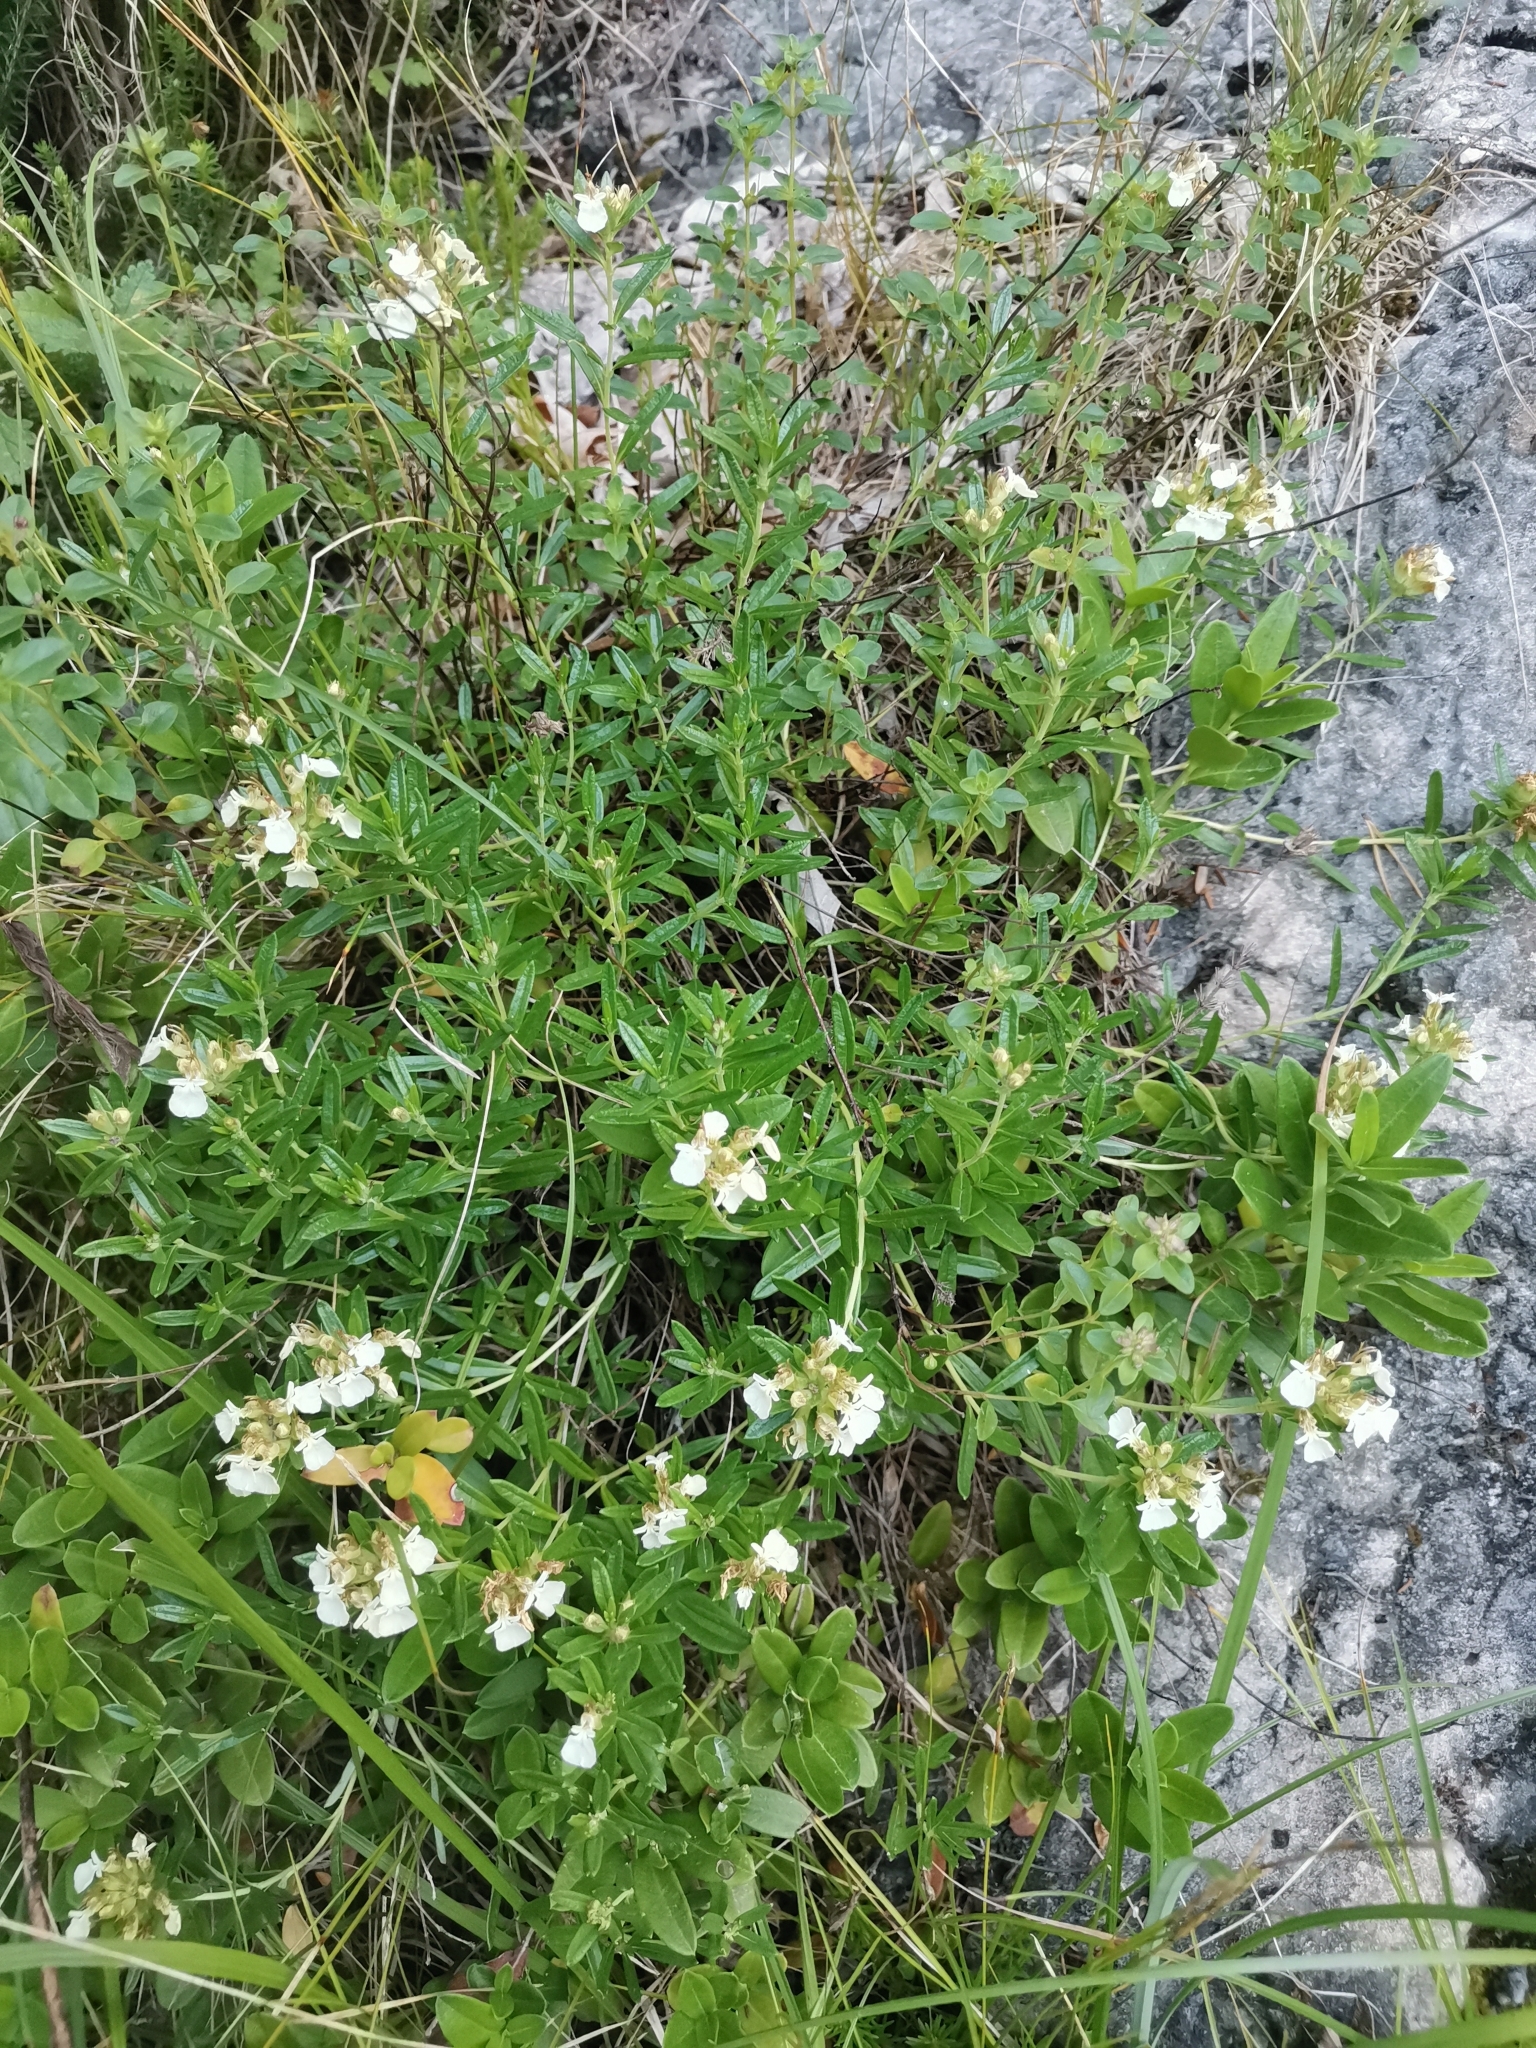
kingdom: Plantae
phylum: Tracheophyta
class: Magnoliopsida
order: Lamiales
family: Lamiaceae
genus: Teucrium
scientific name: Teucrium montanum
